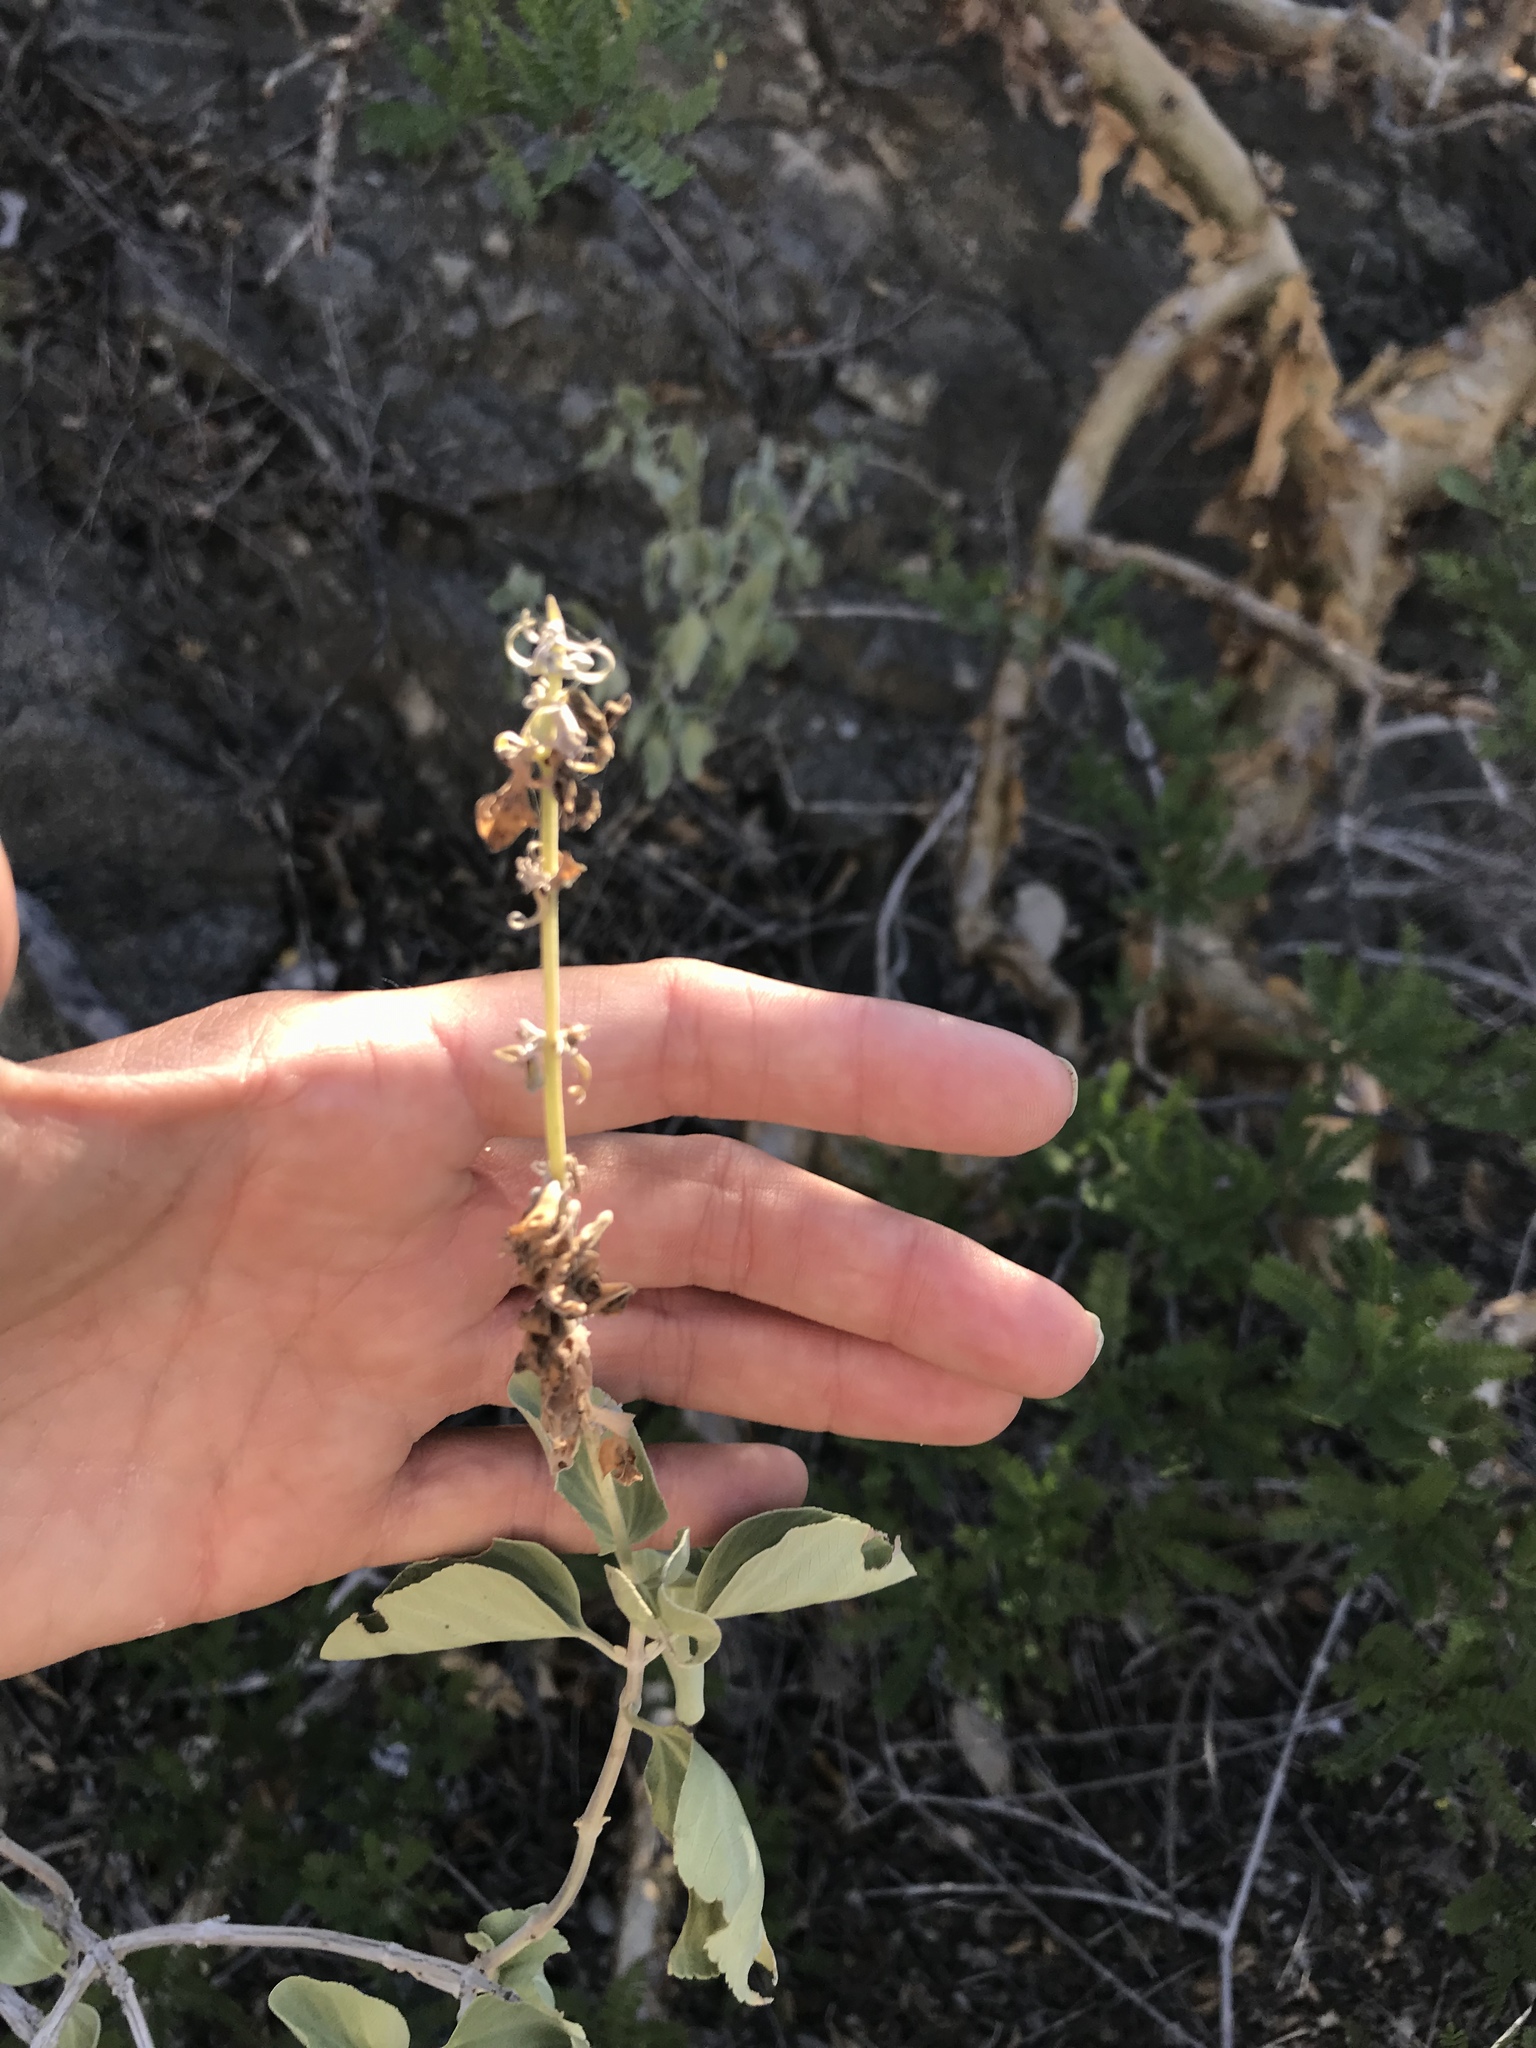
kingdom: Plantae
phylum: Tracheophyta
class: Magnoliopsida
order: Lamiales
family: Lamiaceae
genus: Salvia
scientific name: Salvia platycheila
